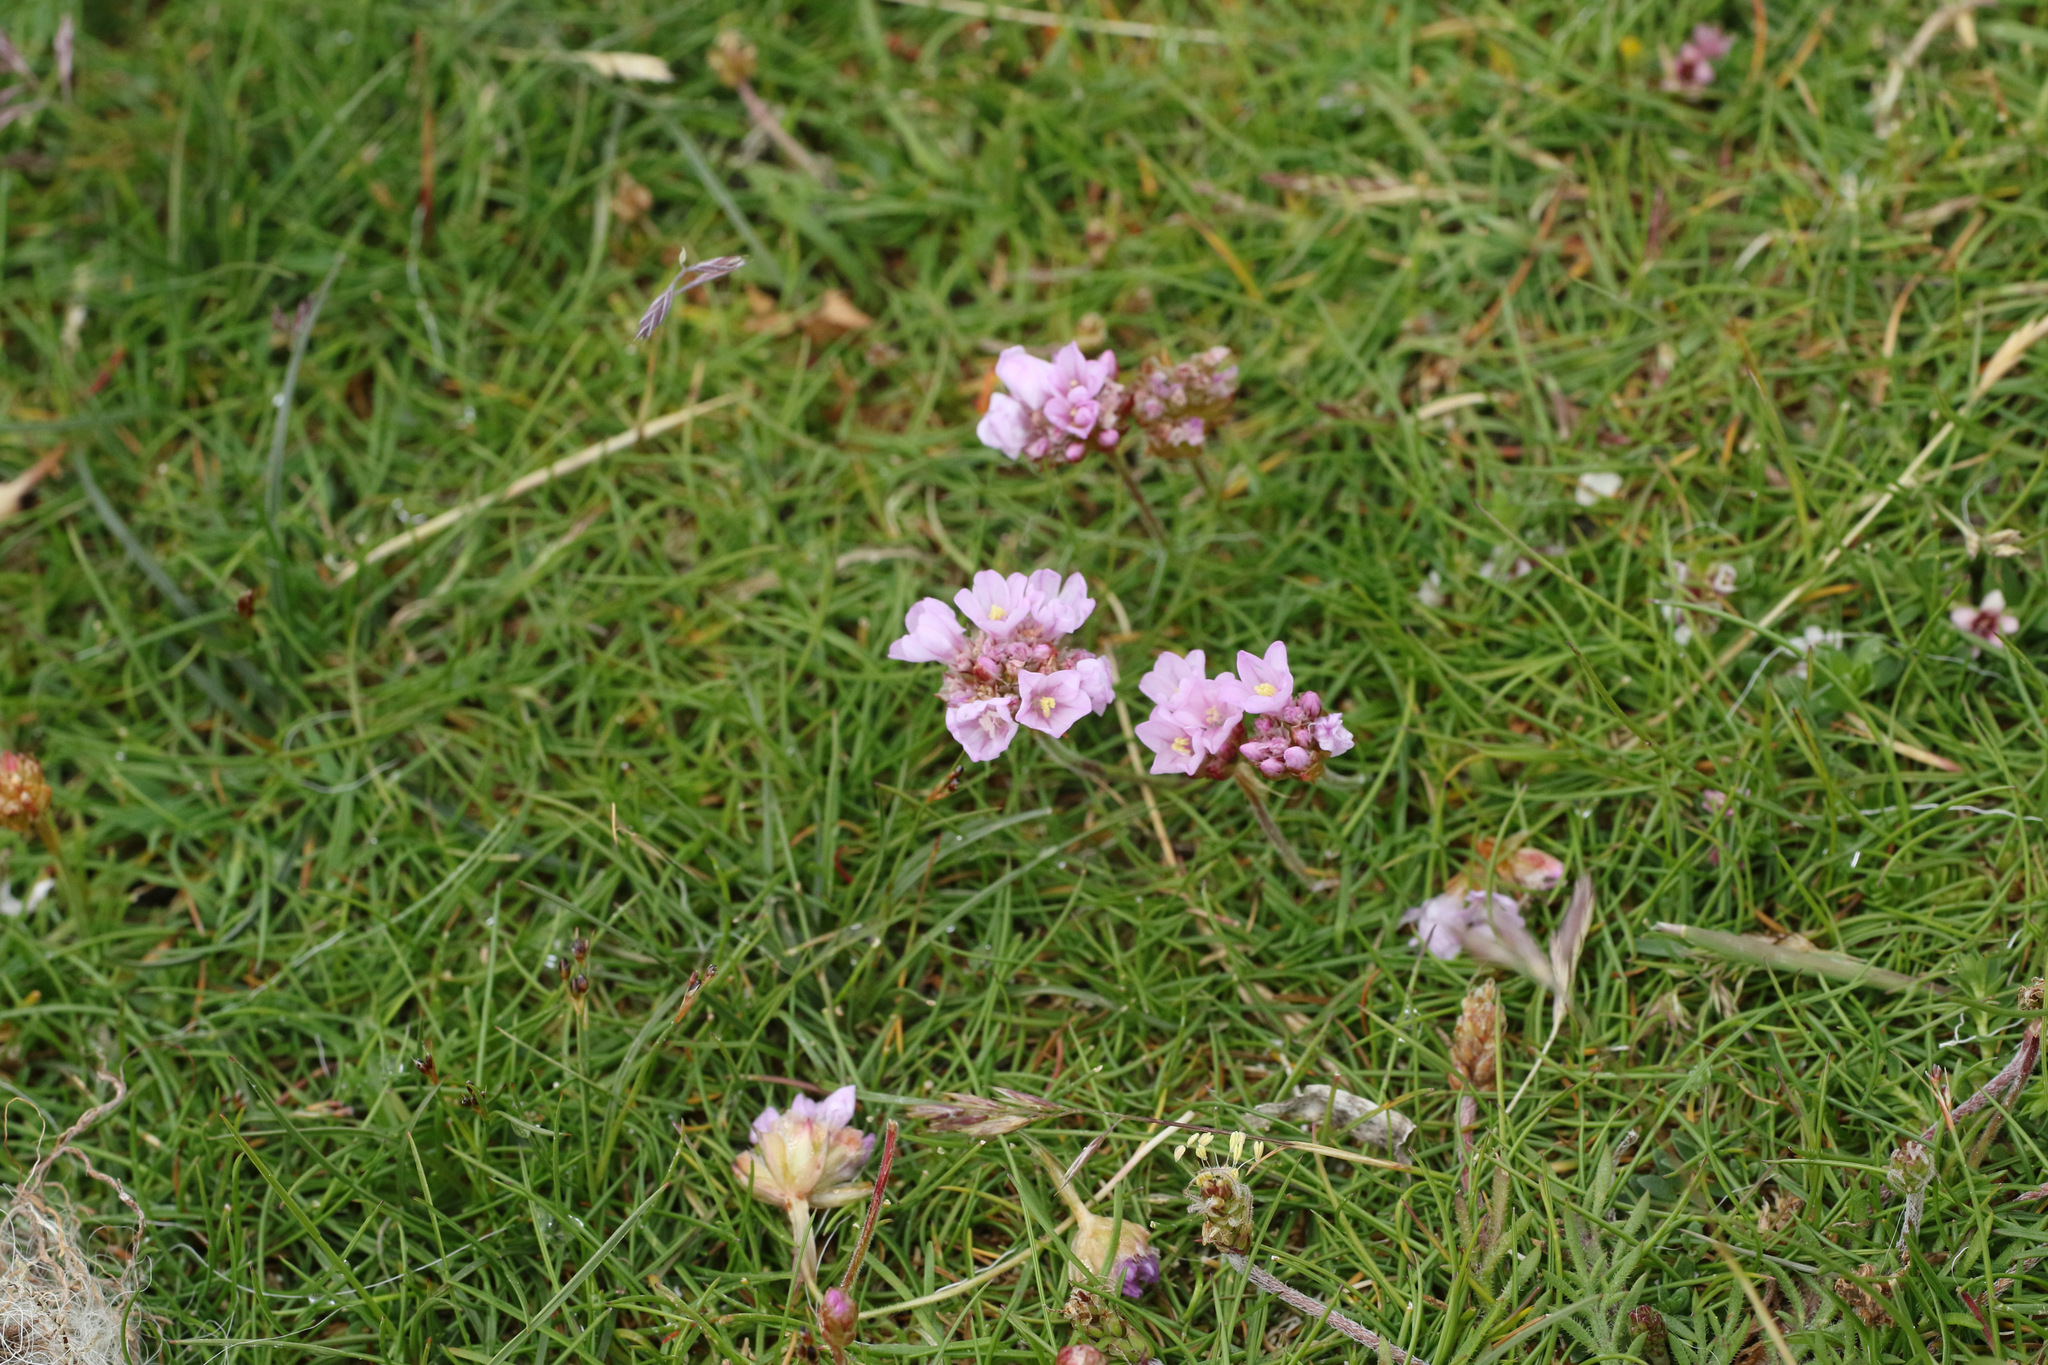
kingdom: Plantae
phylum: Tracheophyta
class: Magnoliopsida
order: Caryophyllales
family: Plumbaginaceae
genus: Armeria
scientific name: Armeria maritima
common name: Thrift
